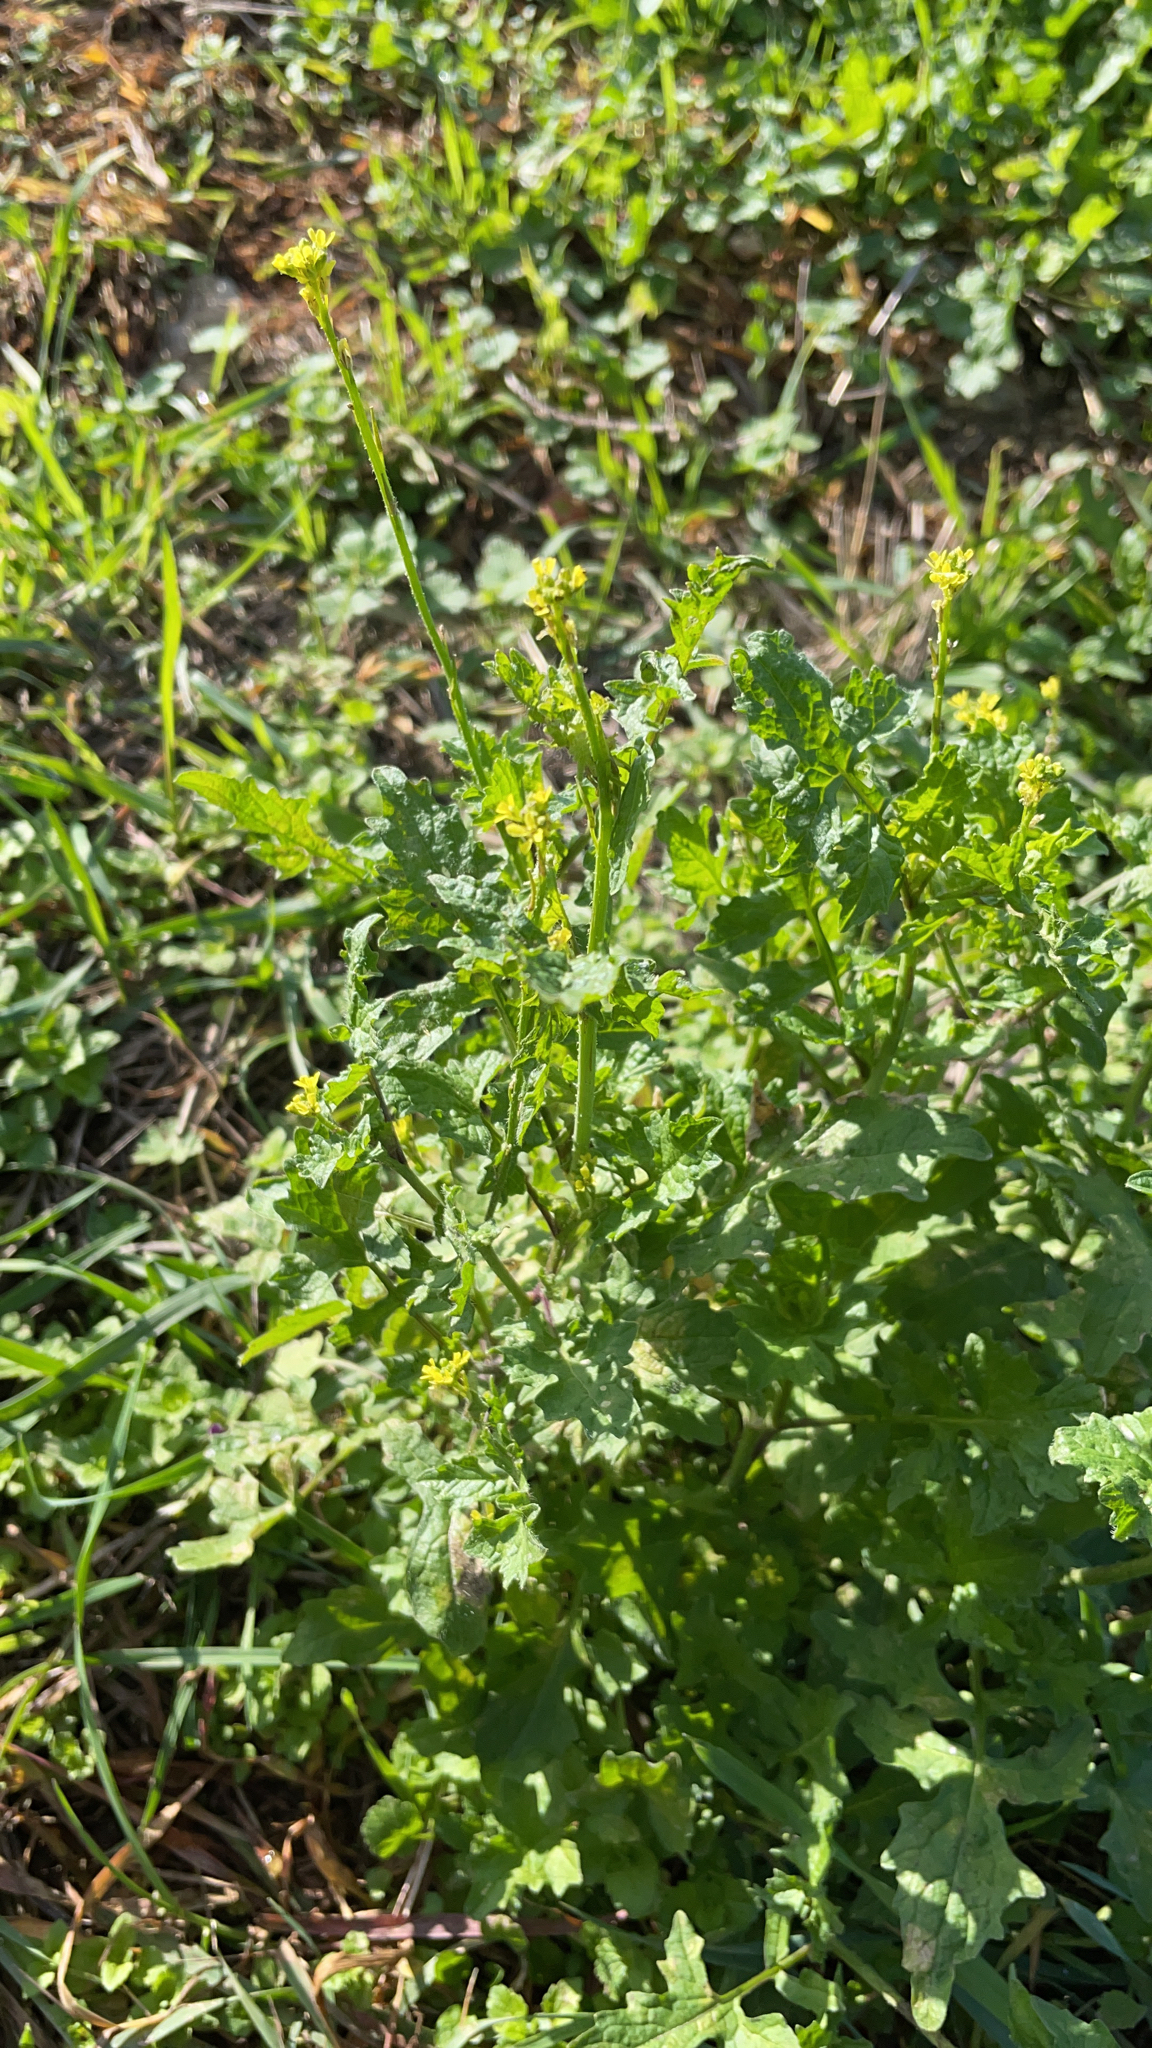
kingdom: Plantae
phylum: Tracheophyta
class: Magnoliopsida
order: Brassicales
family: Brassicaceae
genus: Sisymbrium
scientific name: Sisymbrium officinale
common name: Hedge mustard
